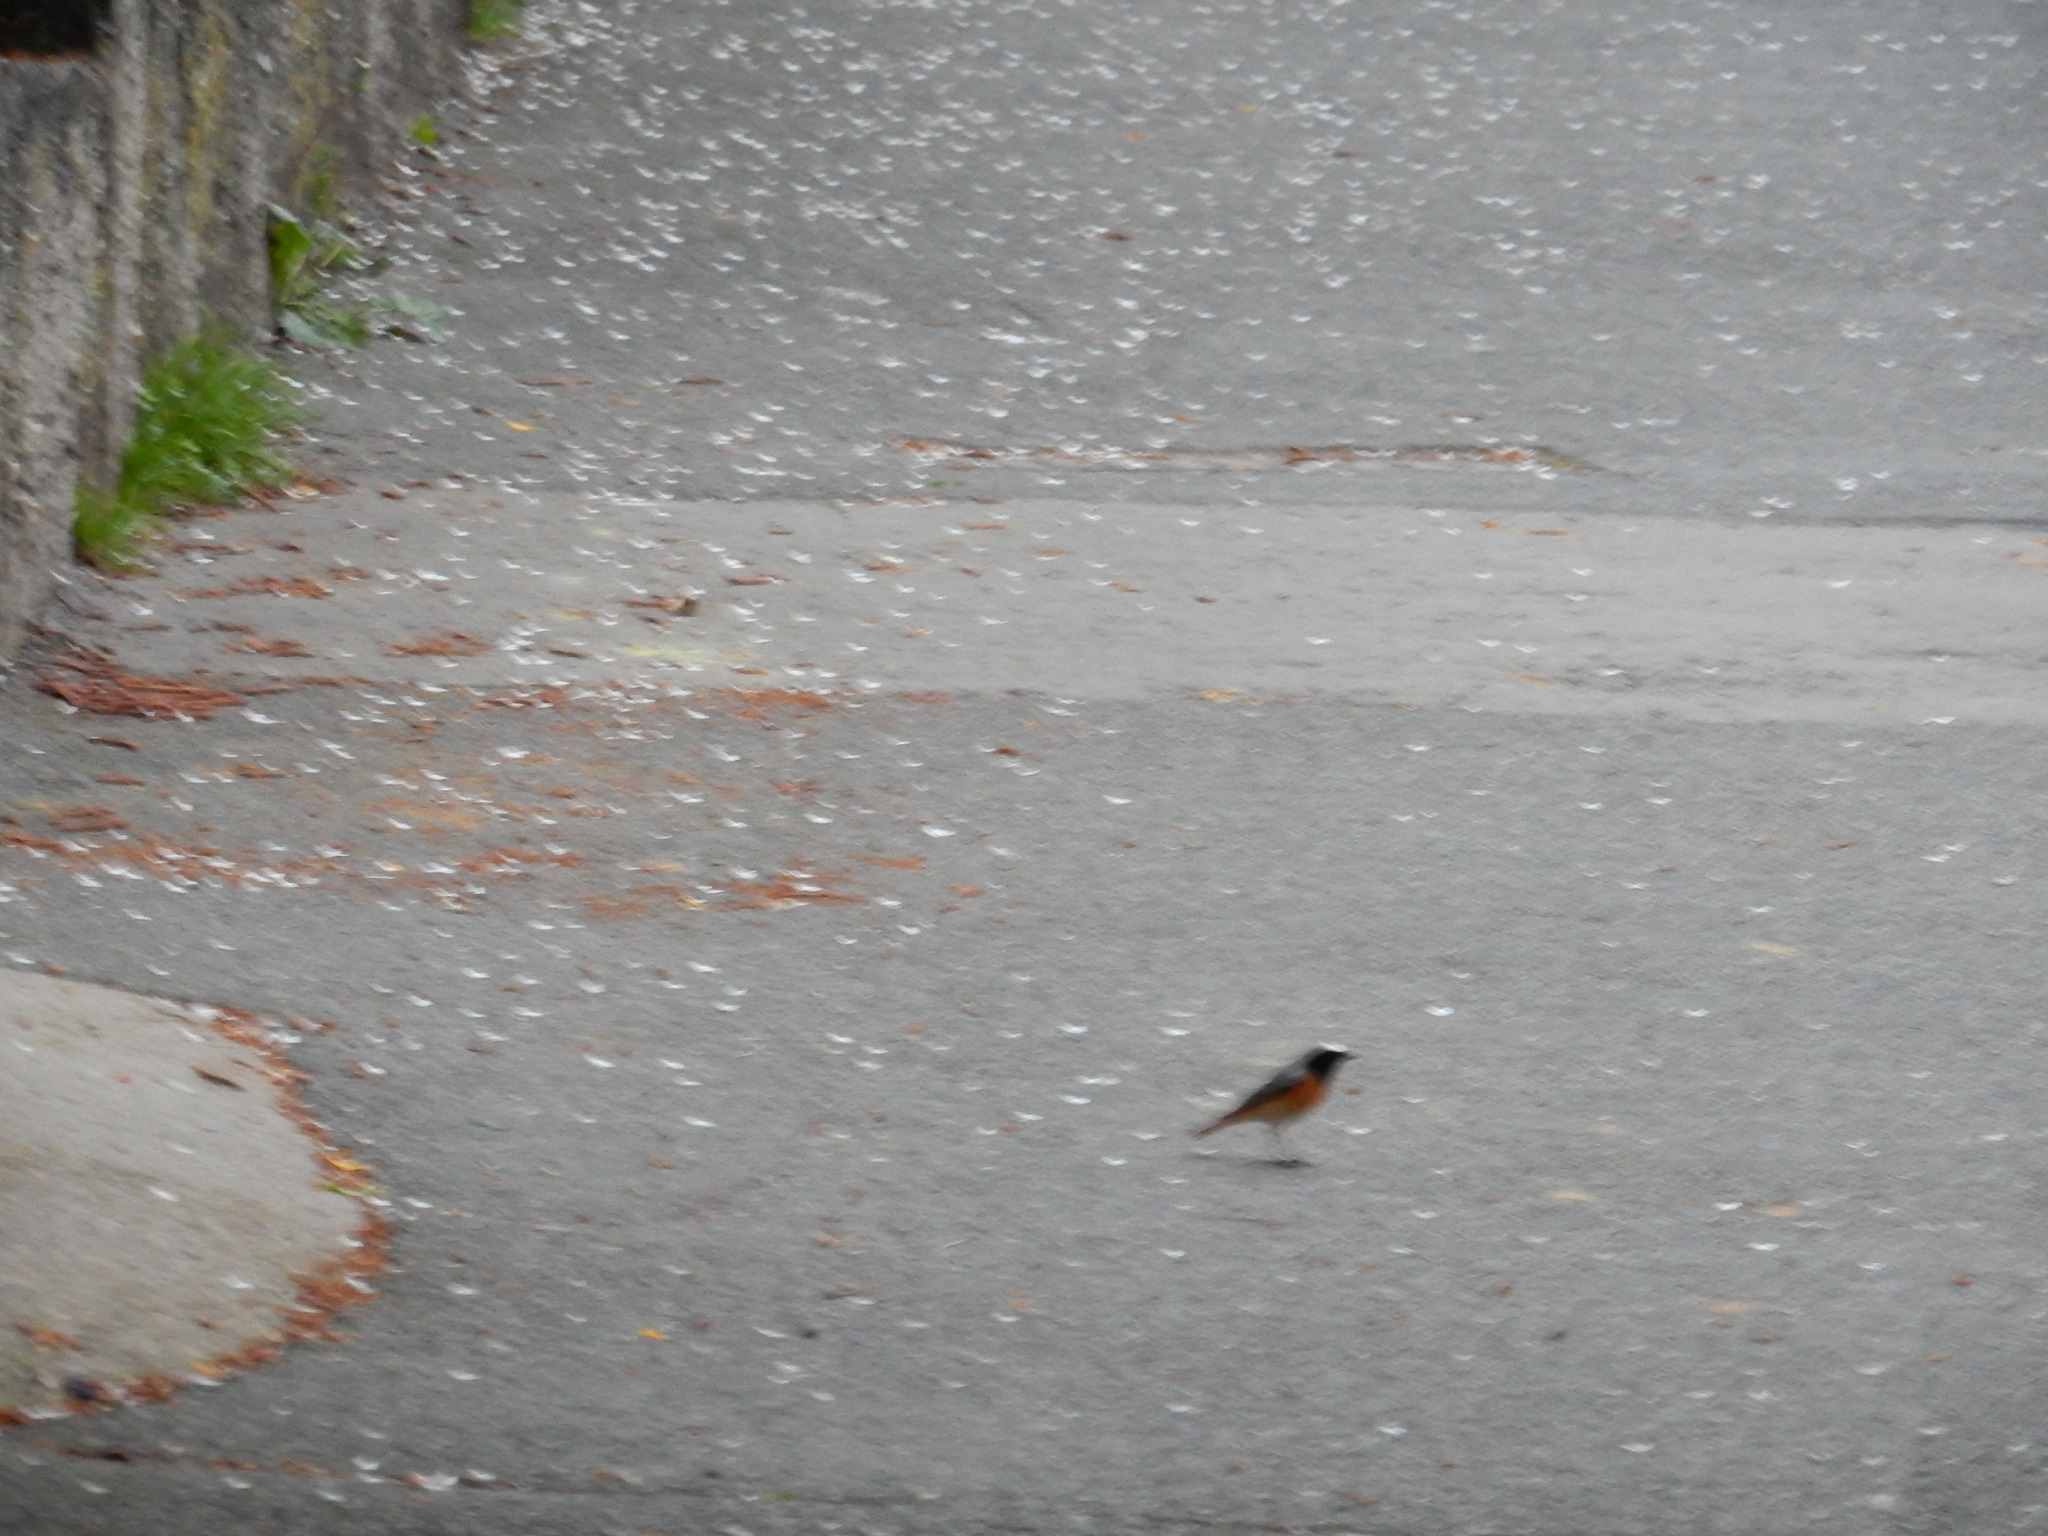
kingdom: Animalia
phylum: Chordata
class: Aves
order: Passeriformes
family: Muscicapidae
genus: Phoenicurus
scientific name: Phoenicurus phoenicurus
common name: Common redstart
